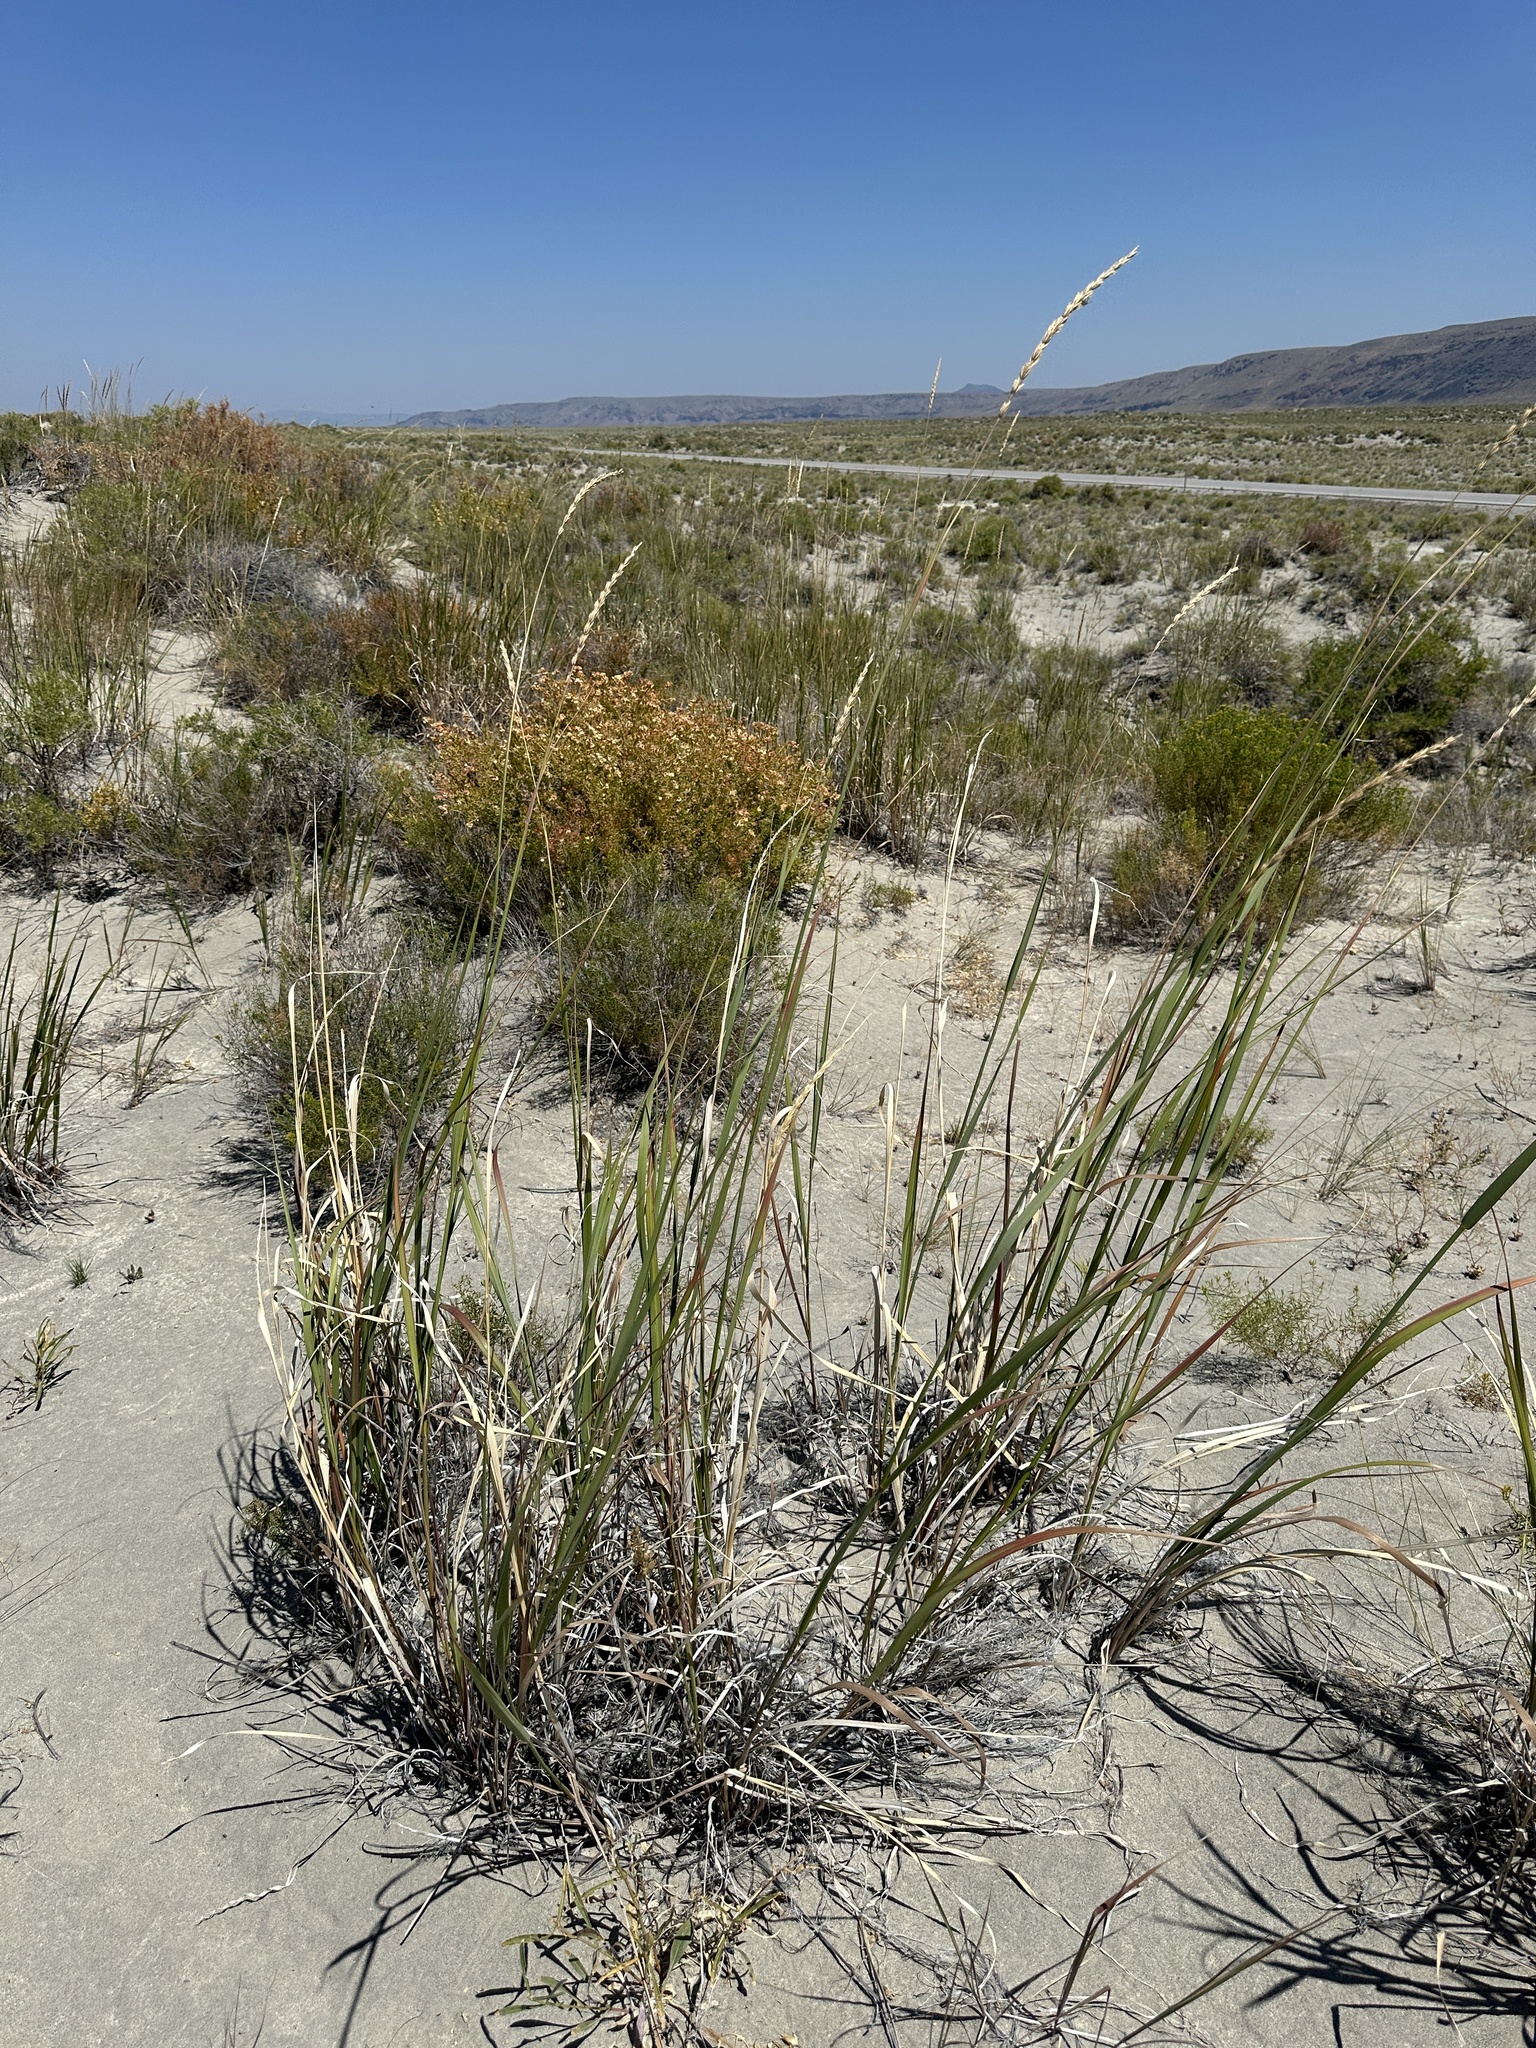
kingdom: Plantae
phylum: Tracheophyta
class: Liliopsida
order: Poales
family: Poaceae
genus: Leymus
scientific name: Leymus cinereus
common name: Basin wild rye
